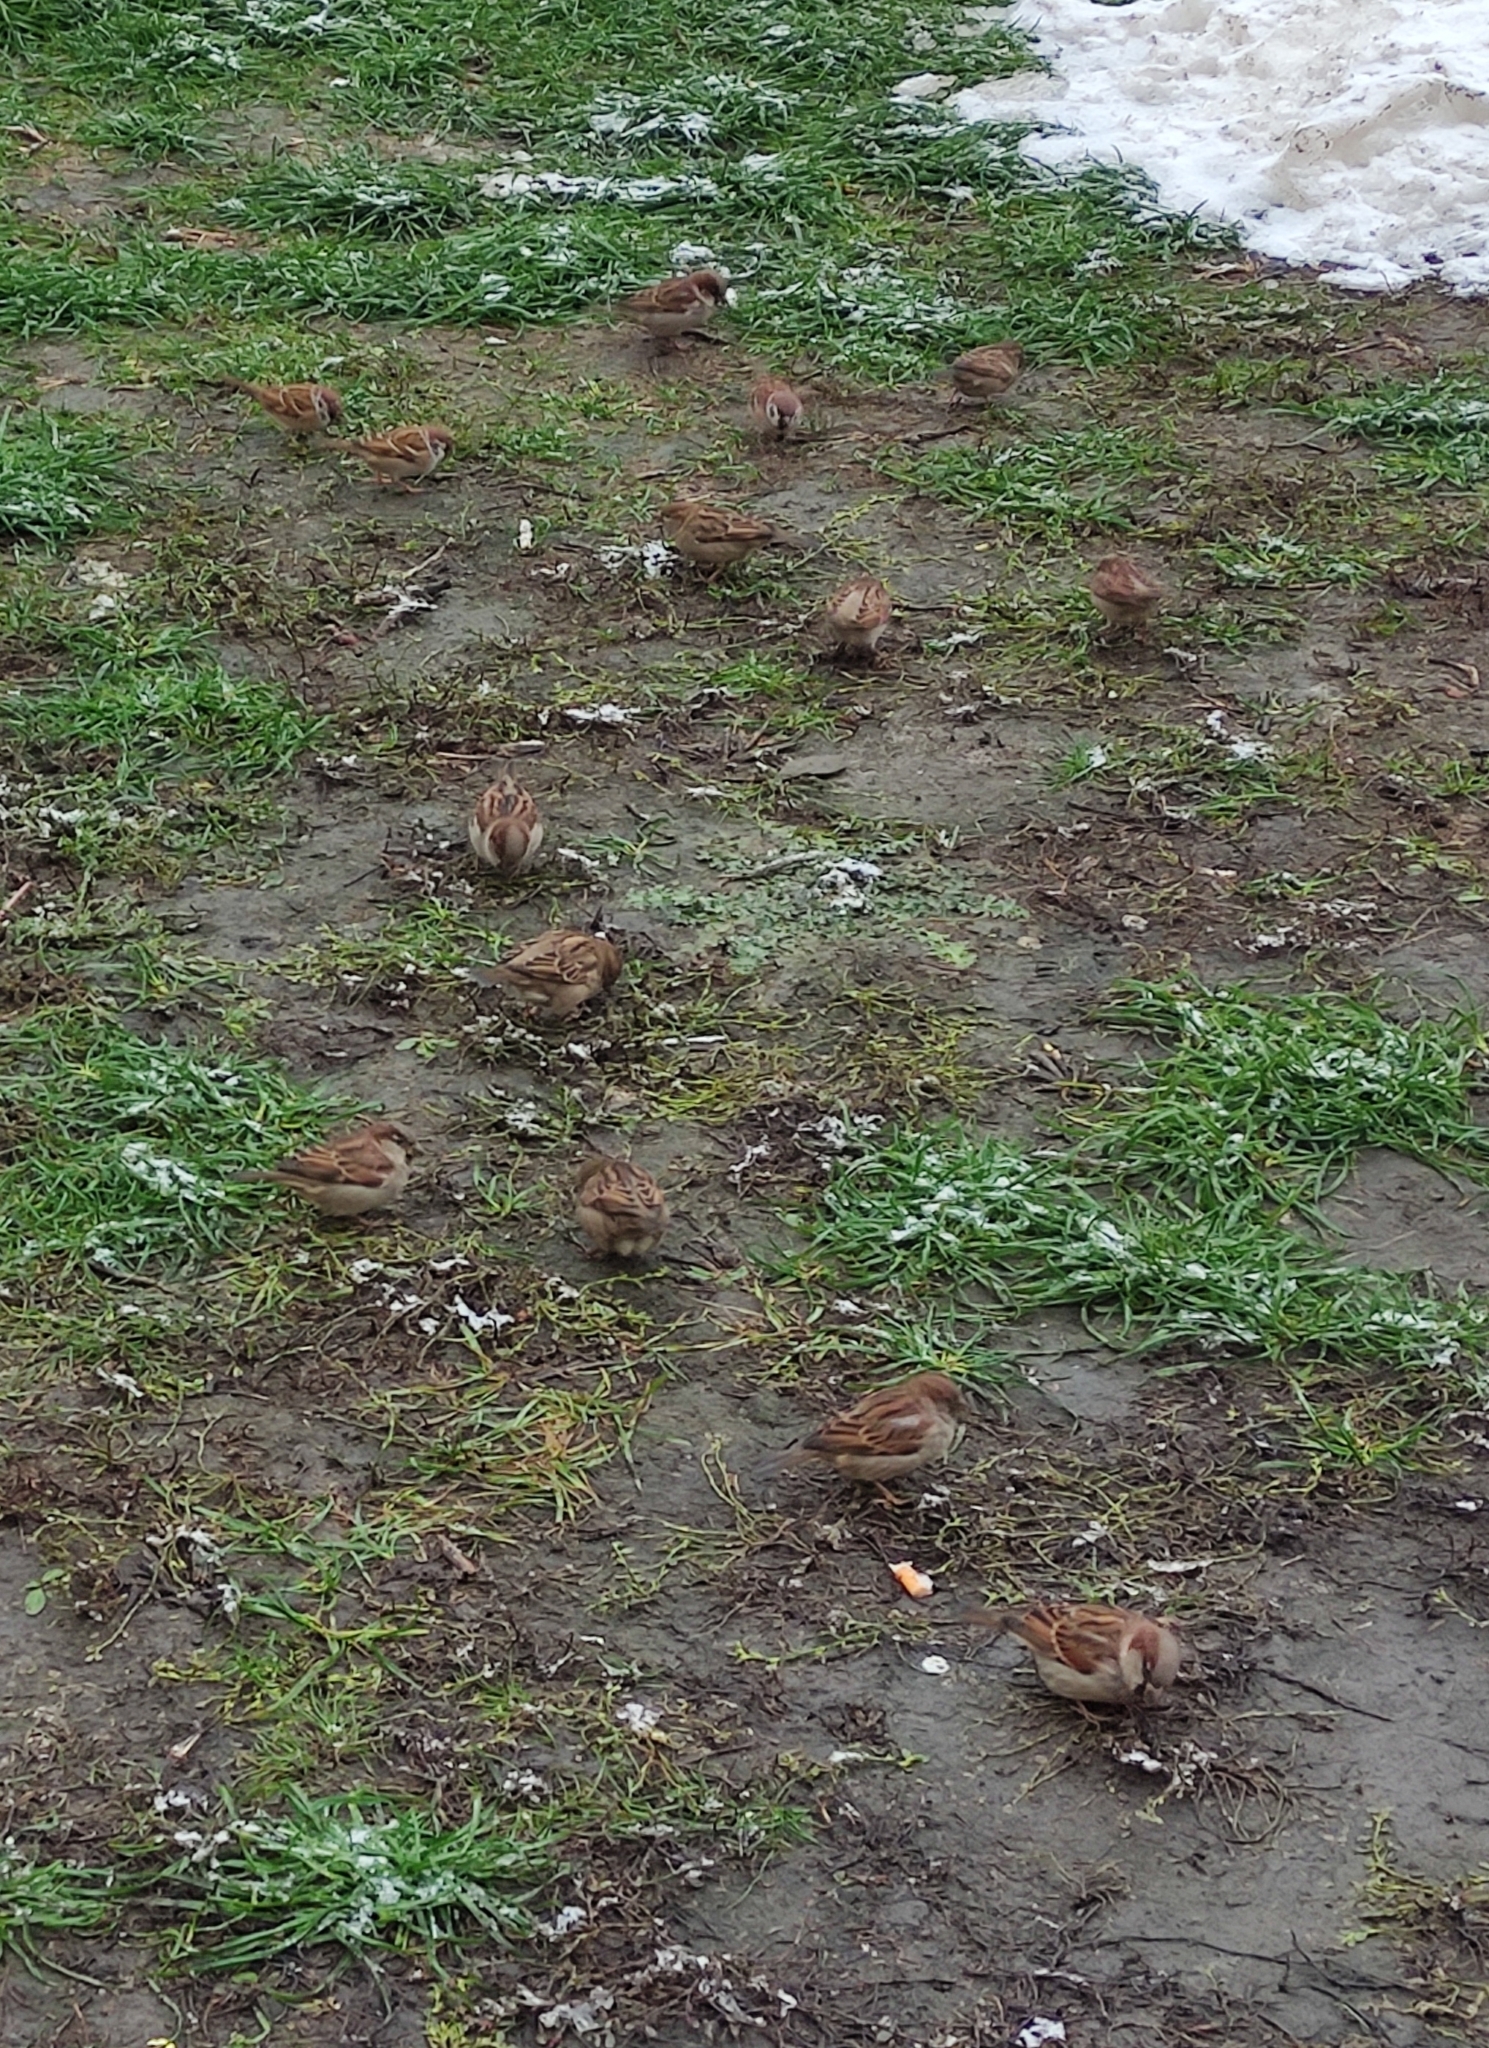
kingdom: Animalia
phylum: Chordata
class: Aves
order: Passeriformes
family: Passeridae
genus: Passer
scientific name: Passer domesticus
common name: House sparrow
